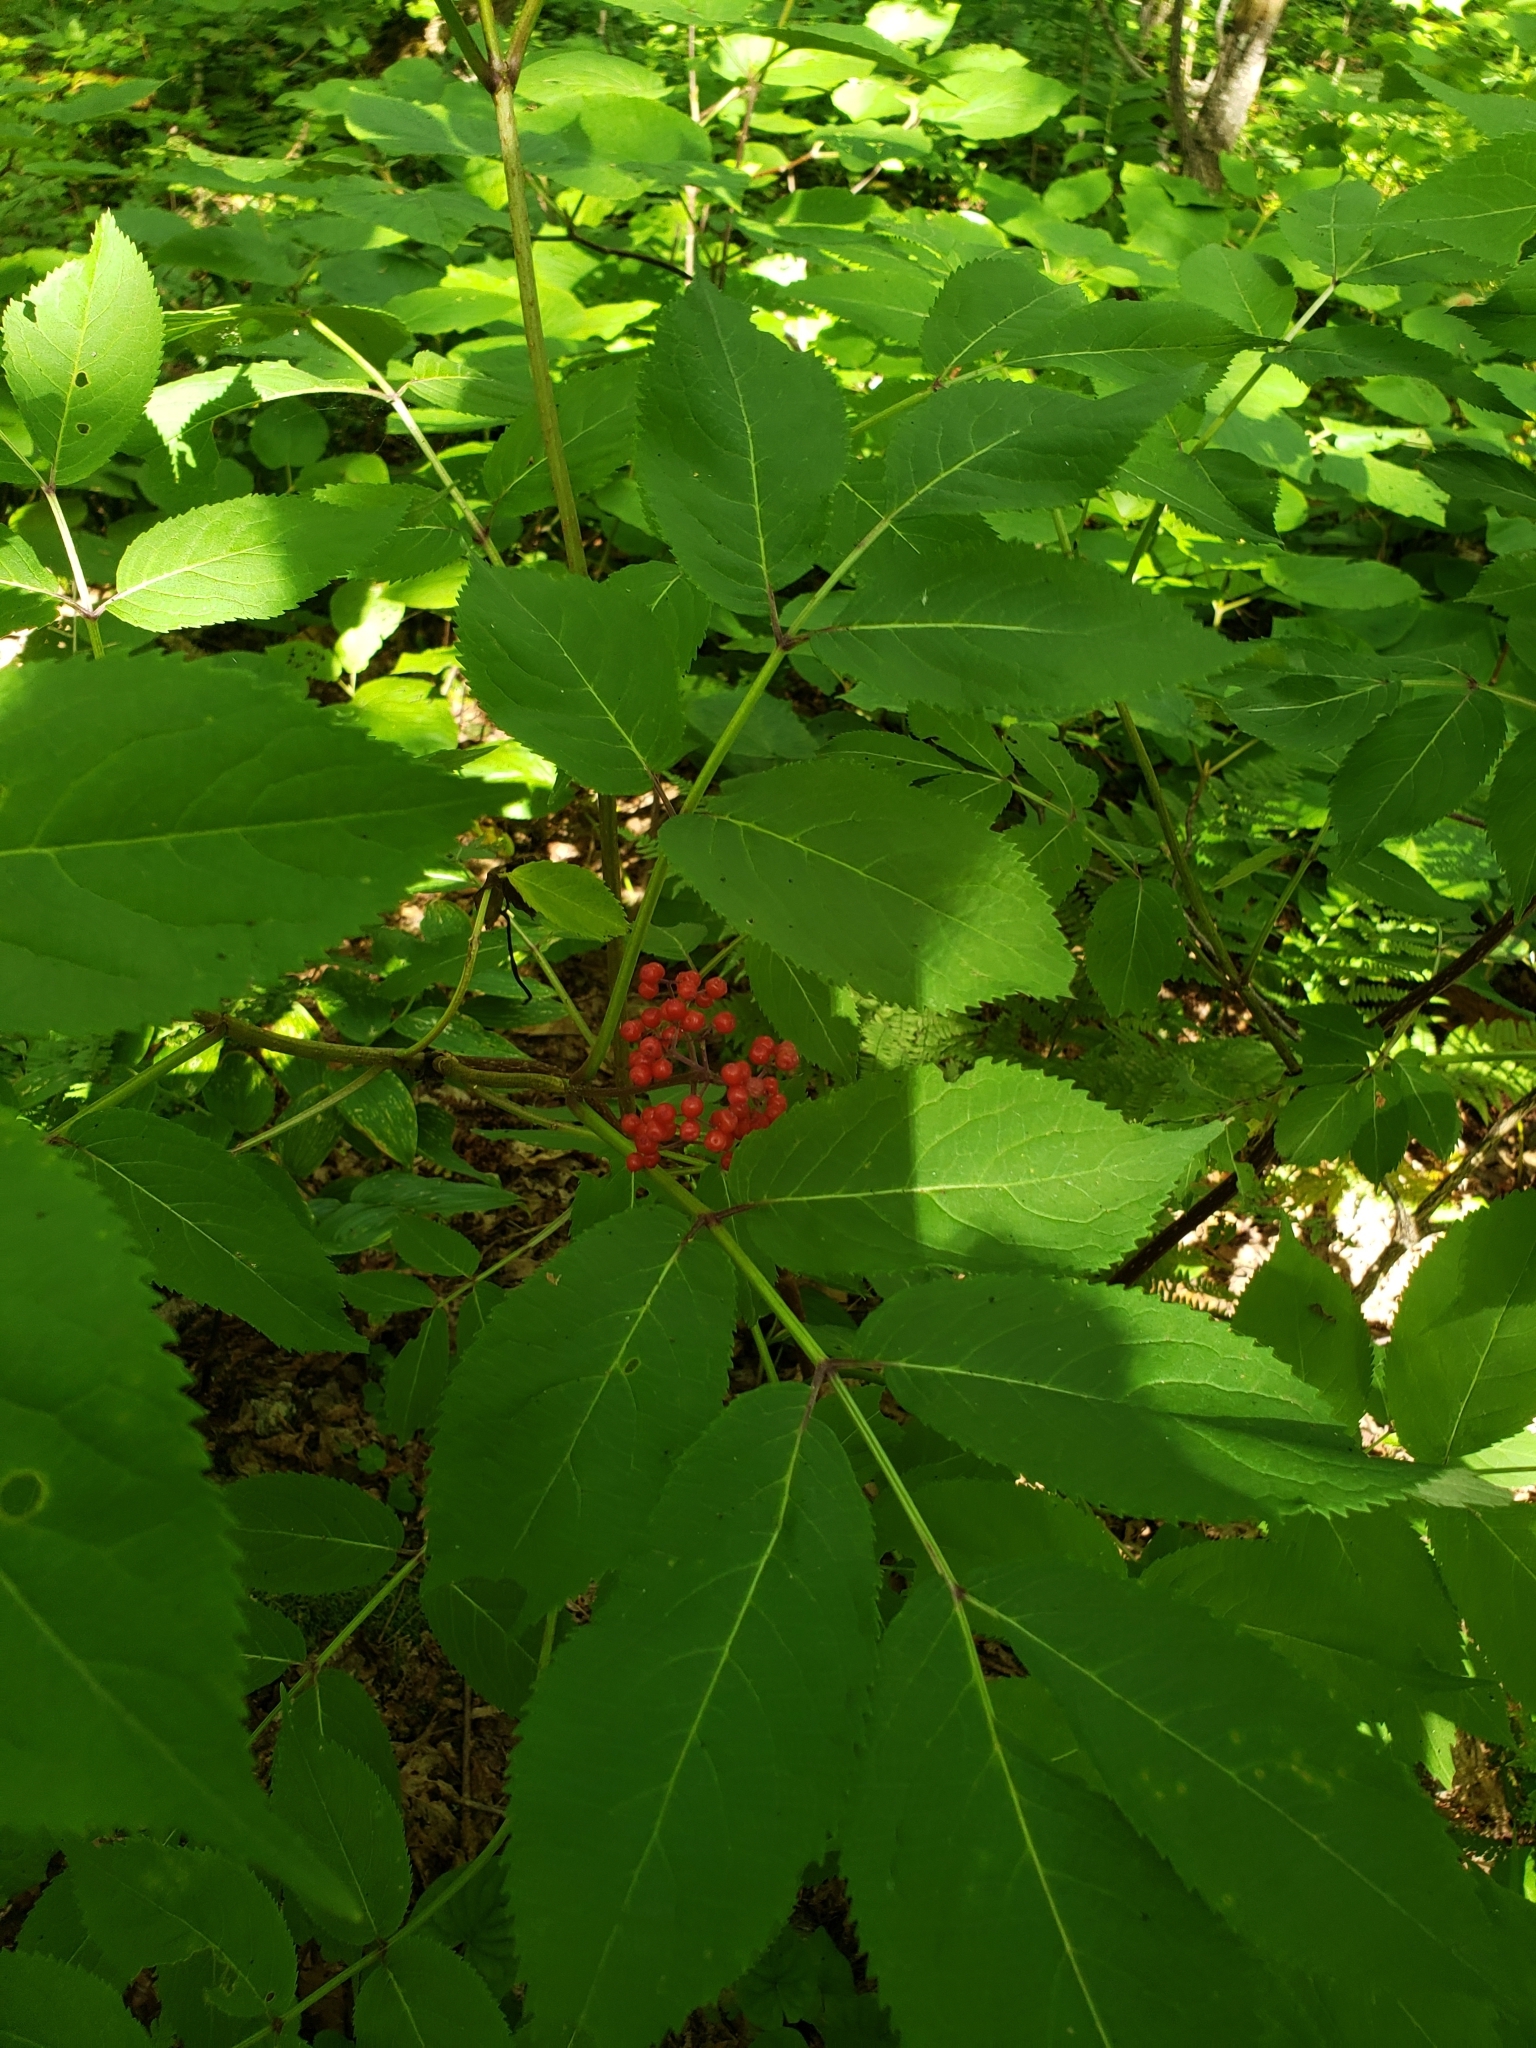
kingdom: Plantae
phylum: Tracheophyta
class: Magnoliopsida
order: Dipsacales
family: Viburnaceae
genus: Sambucus
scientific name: Sambucus racemosa
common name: Red-berried elder
